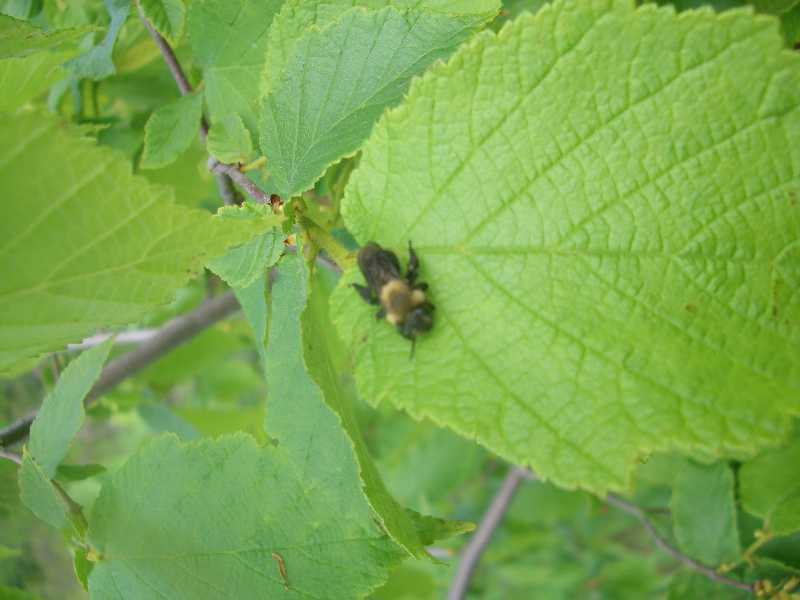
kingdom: Plantae
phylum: Tracheophyta
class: Magnoliopsida
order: Fagales
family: Betulaceae
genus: Corylus
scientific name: Corylus americana
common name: American hazel
